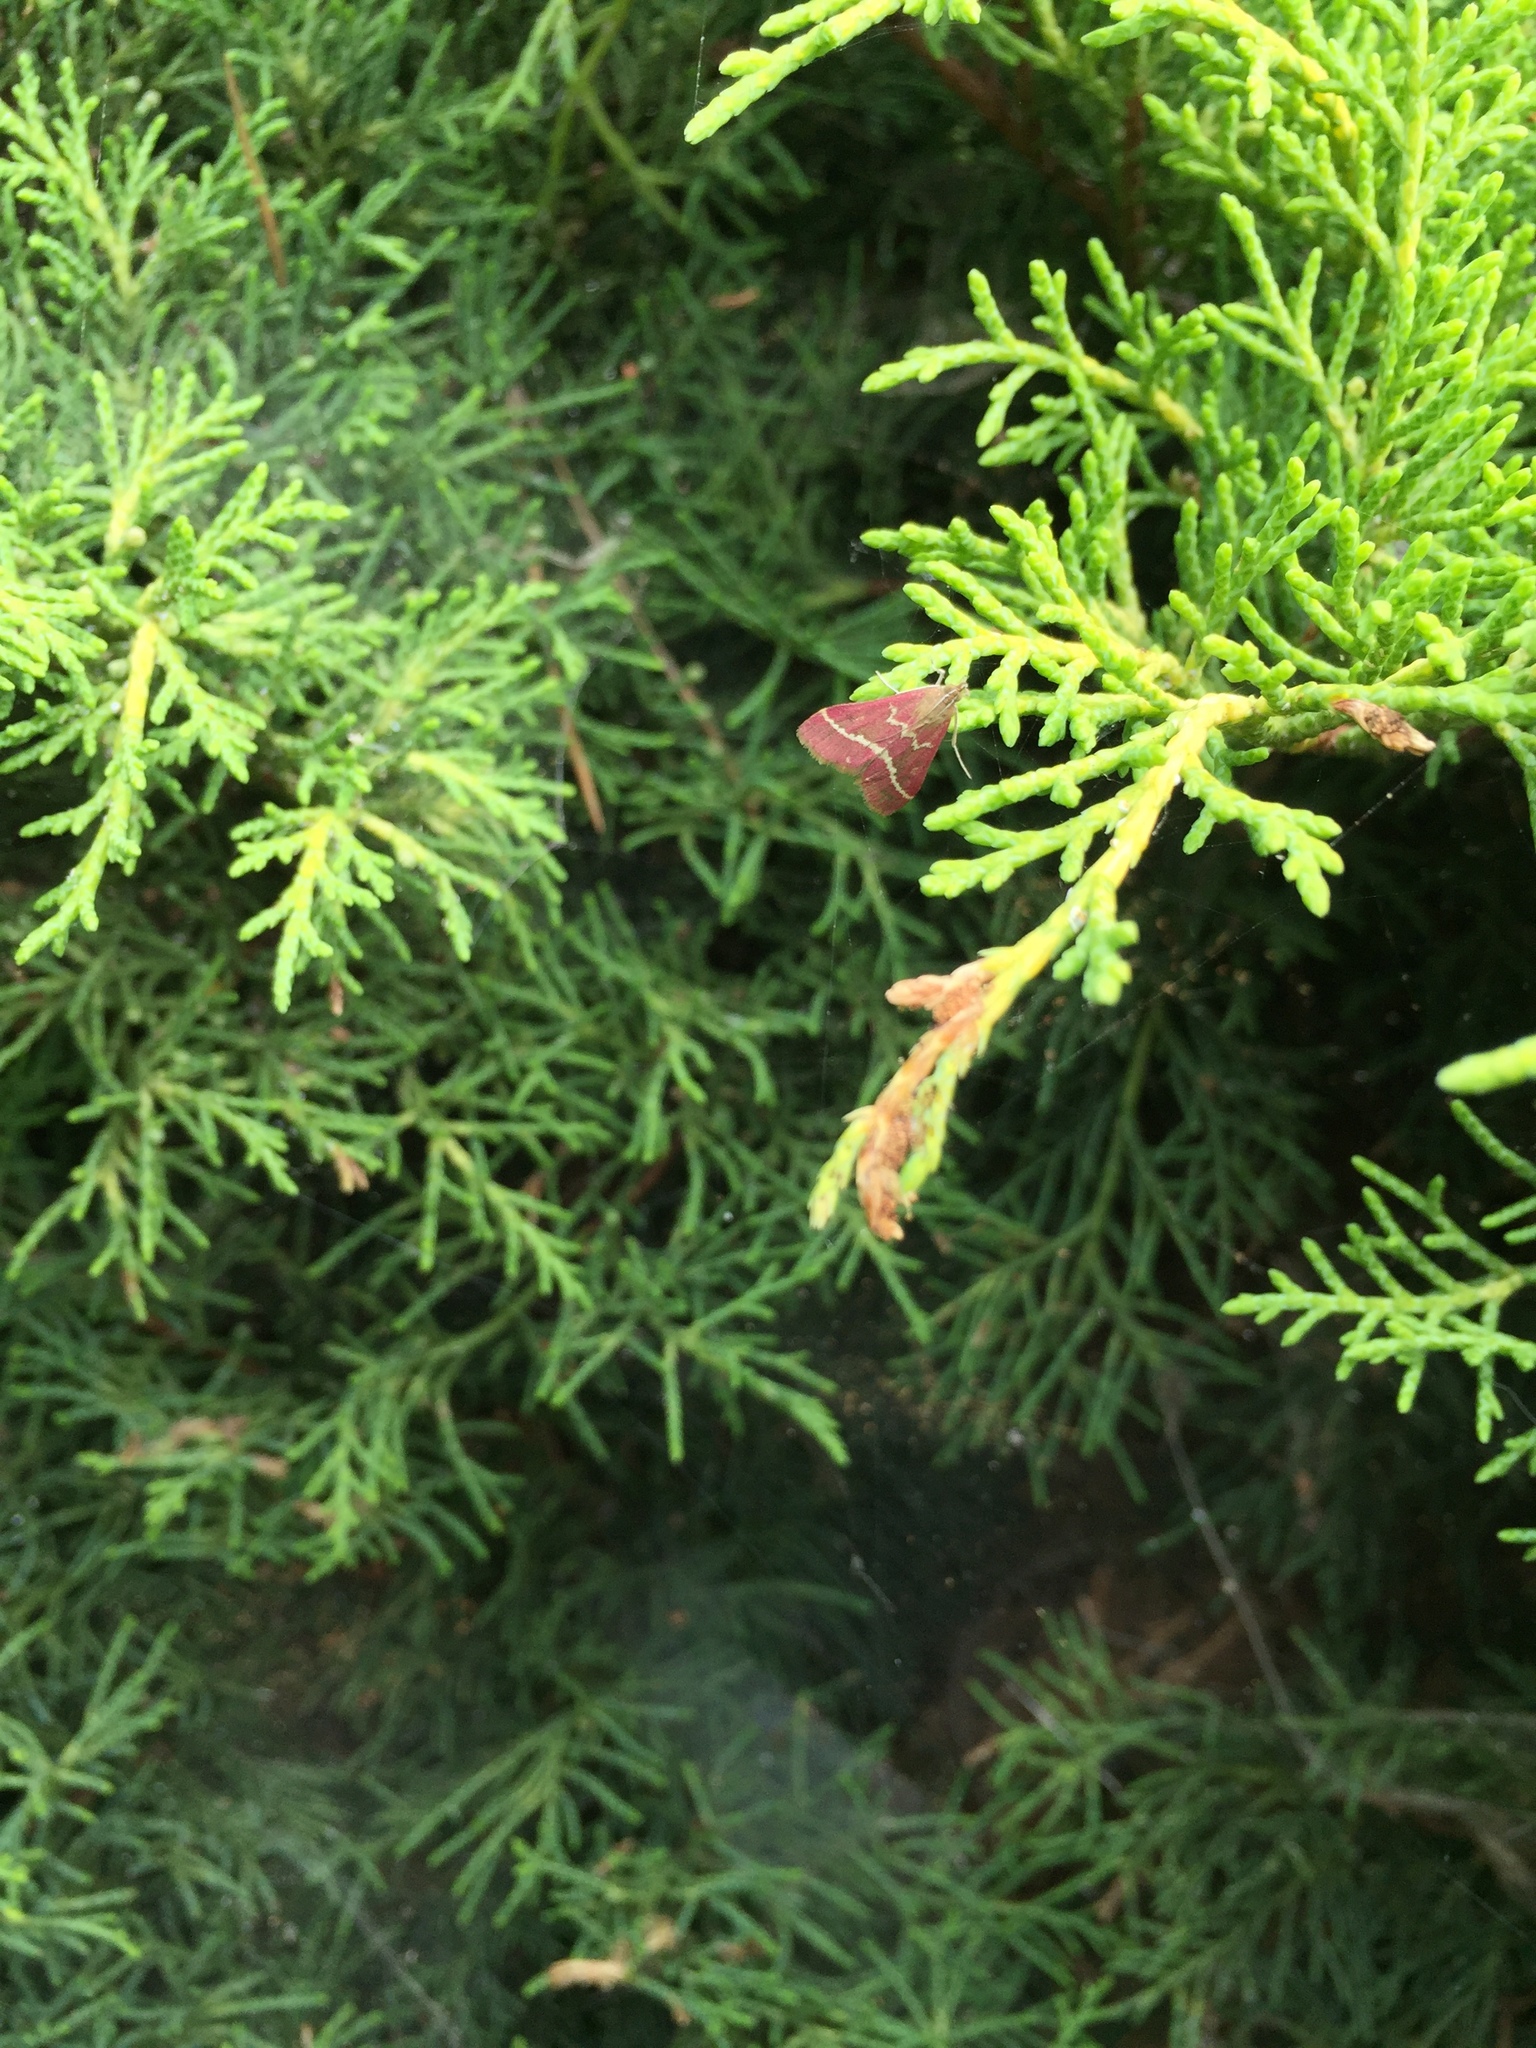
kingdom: Animalia
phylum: Arthropoda
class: Insecta
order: Lepidoptera
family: Crambidae
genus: Pyrausta
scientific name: Pyrausta volupialis
